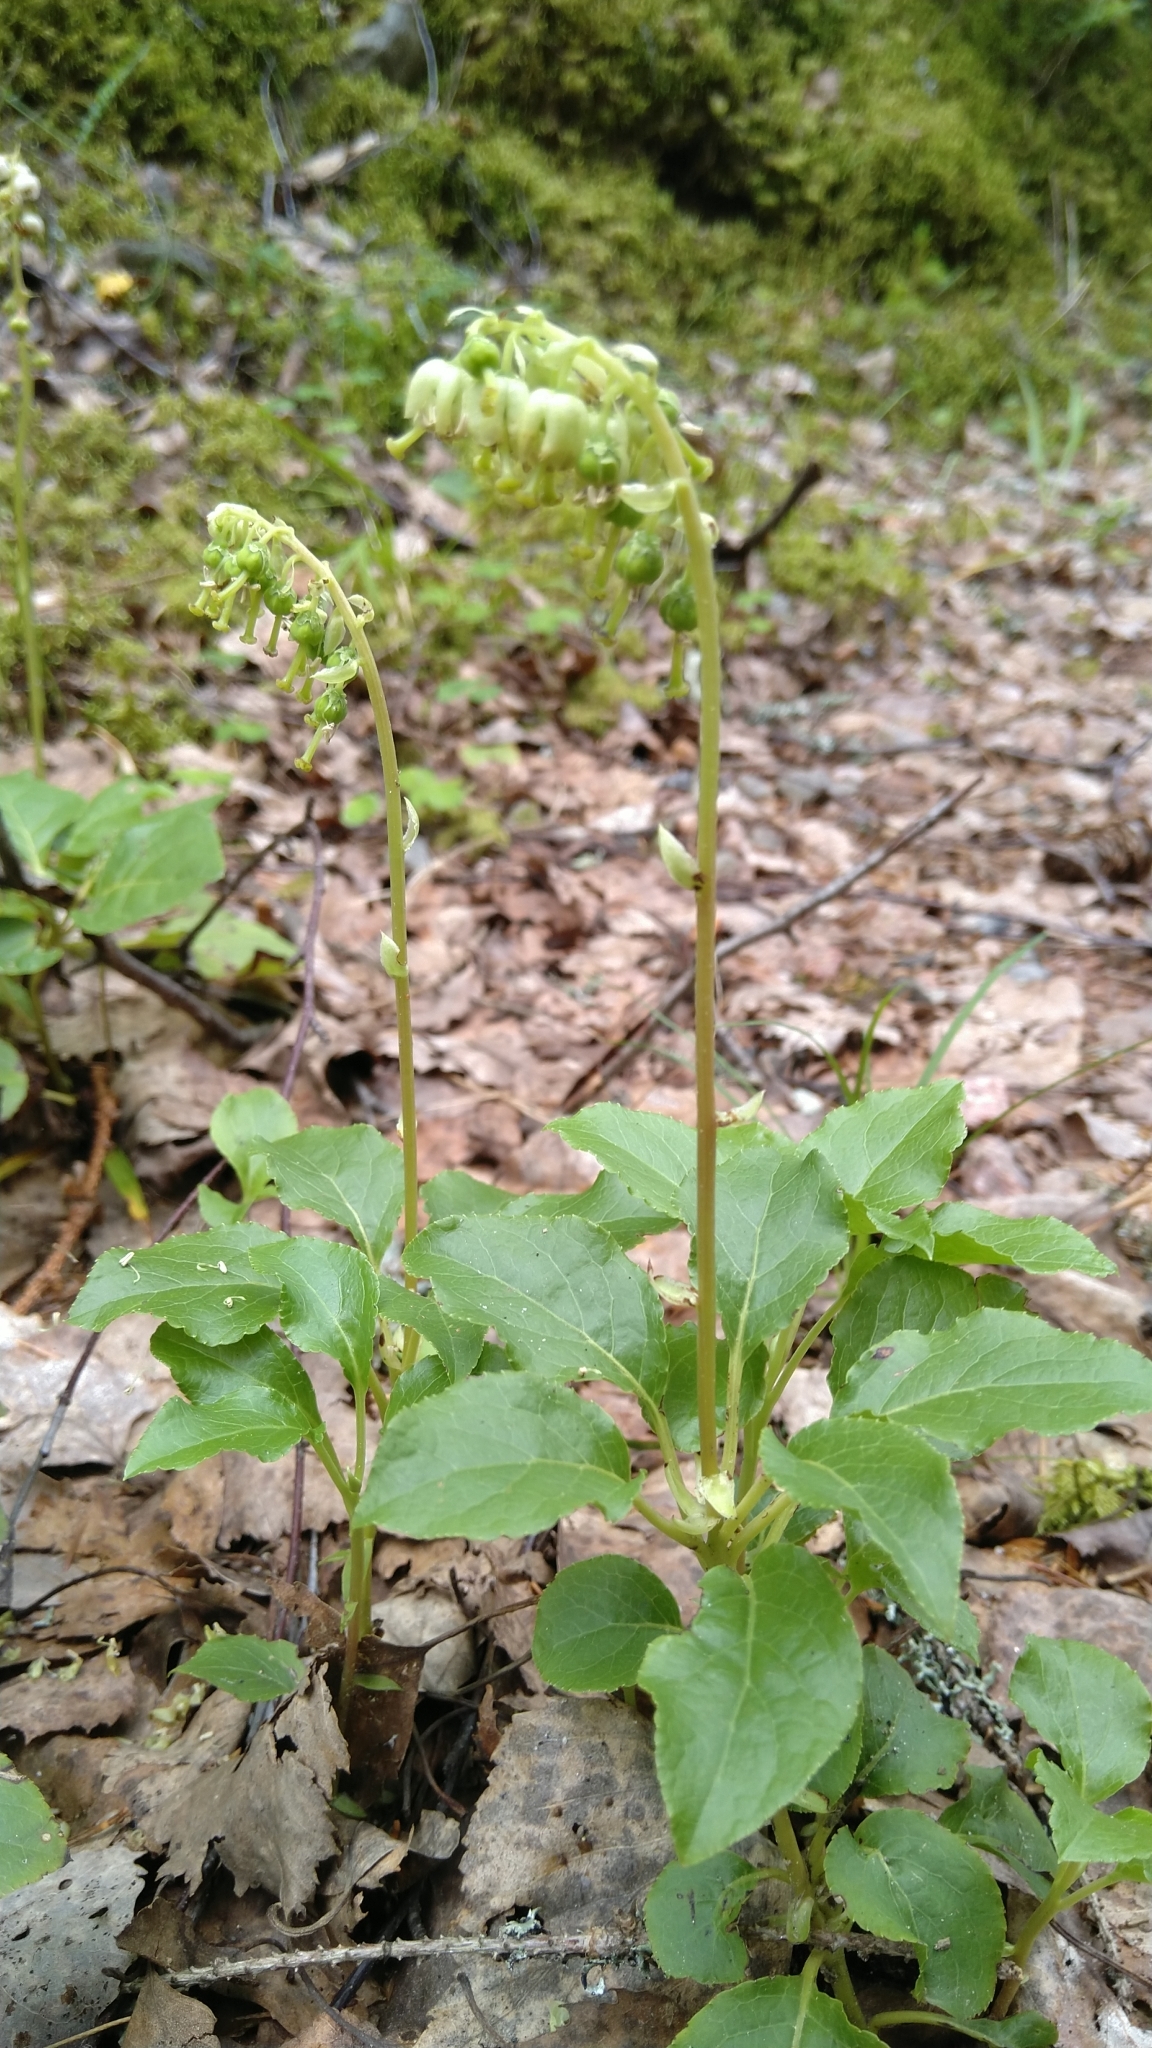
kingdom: Plantae
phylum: Tracheophyta
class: Magnoliopsida
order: Ericales
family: Ericaceae
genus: Orthilia
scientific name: Orthilia secunda
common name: One-sided orthilia
